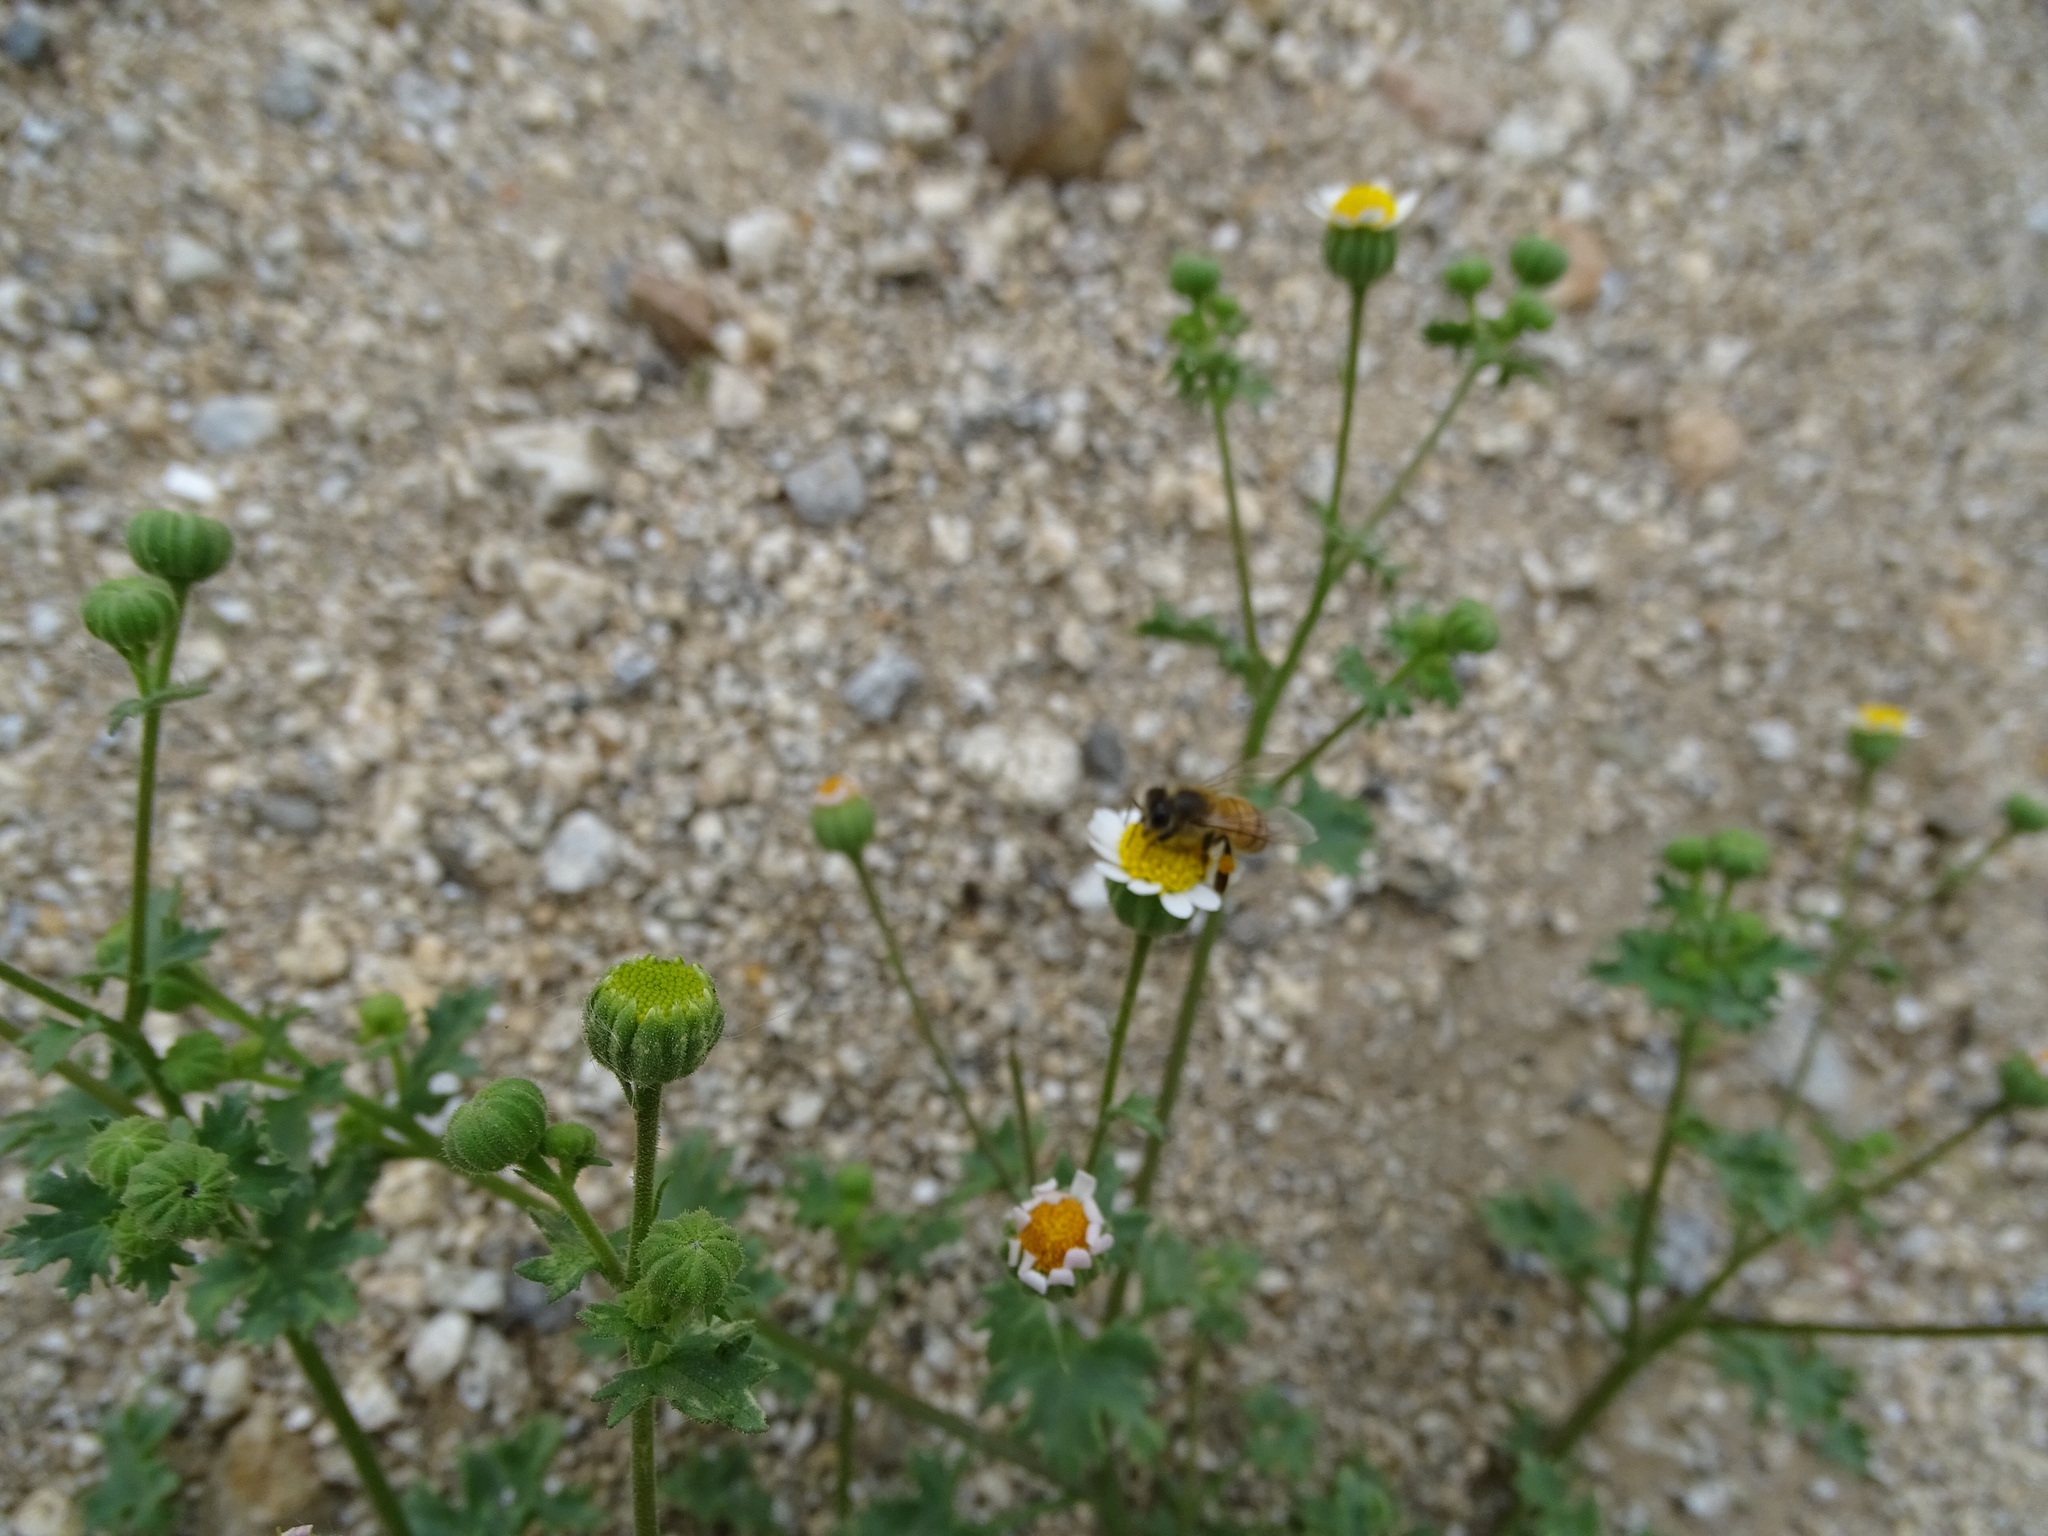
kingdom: Plantae
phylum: Tracheophyta
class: Magnoliopsida
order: Asterales
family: Asteraceae
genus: Laphamia
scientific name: Laphamia emoryi
